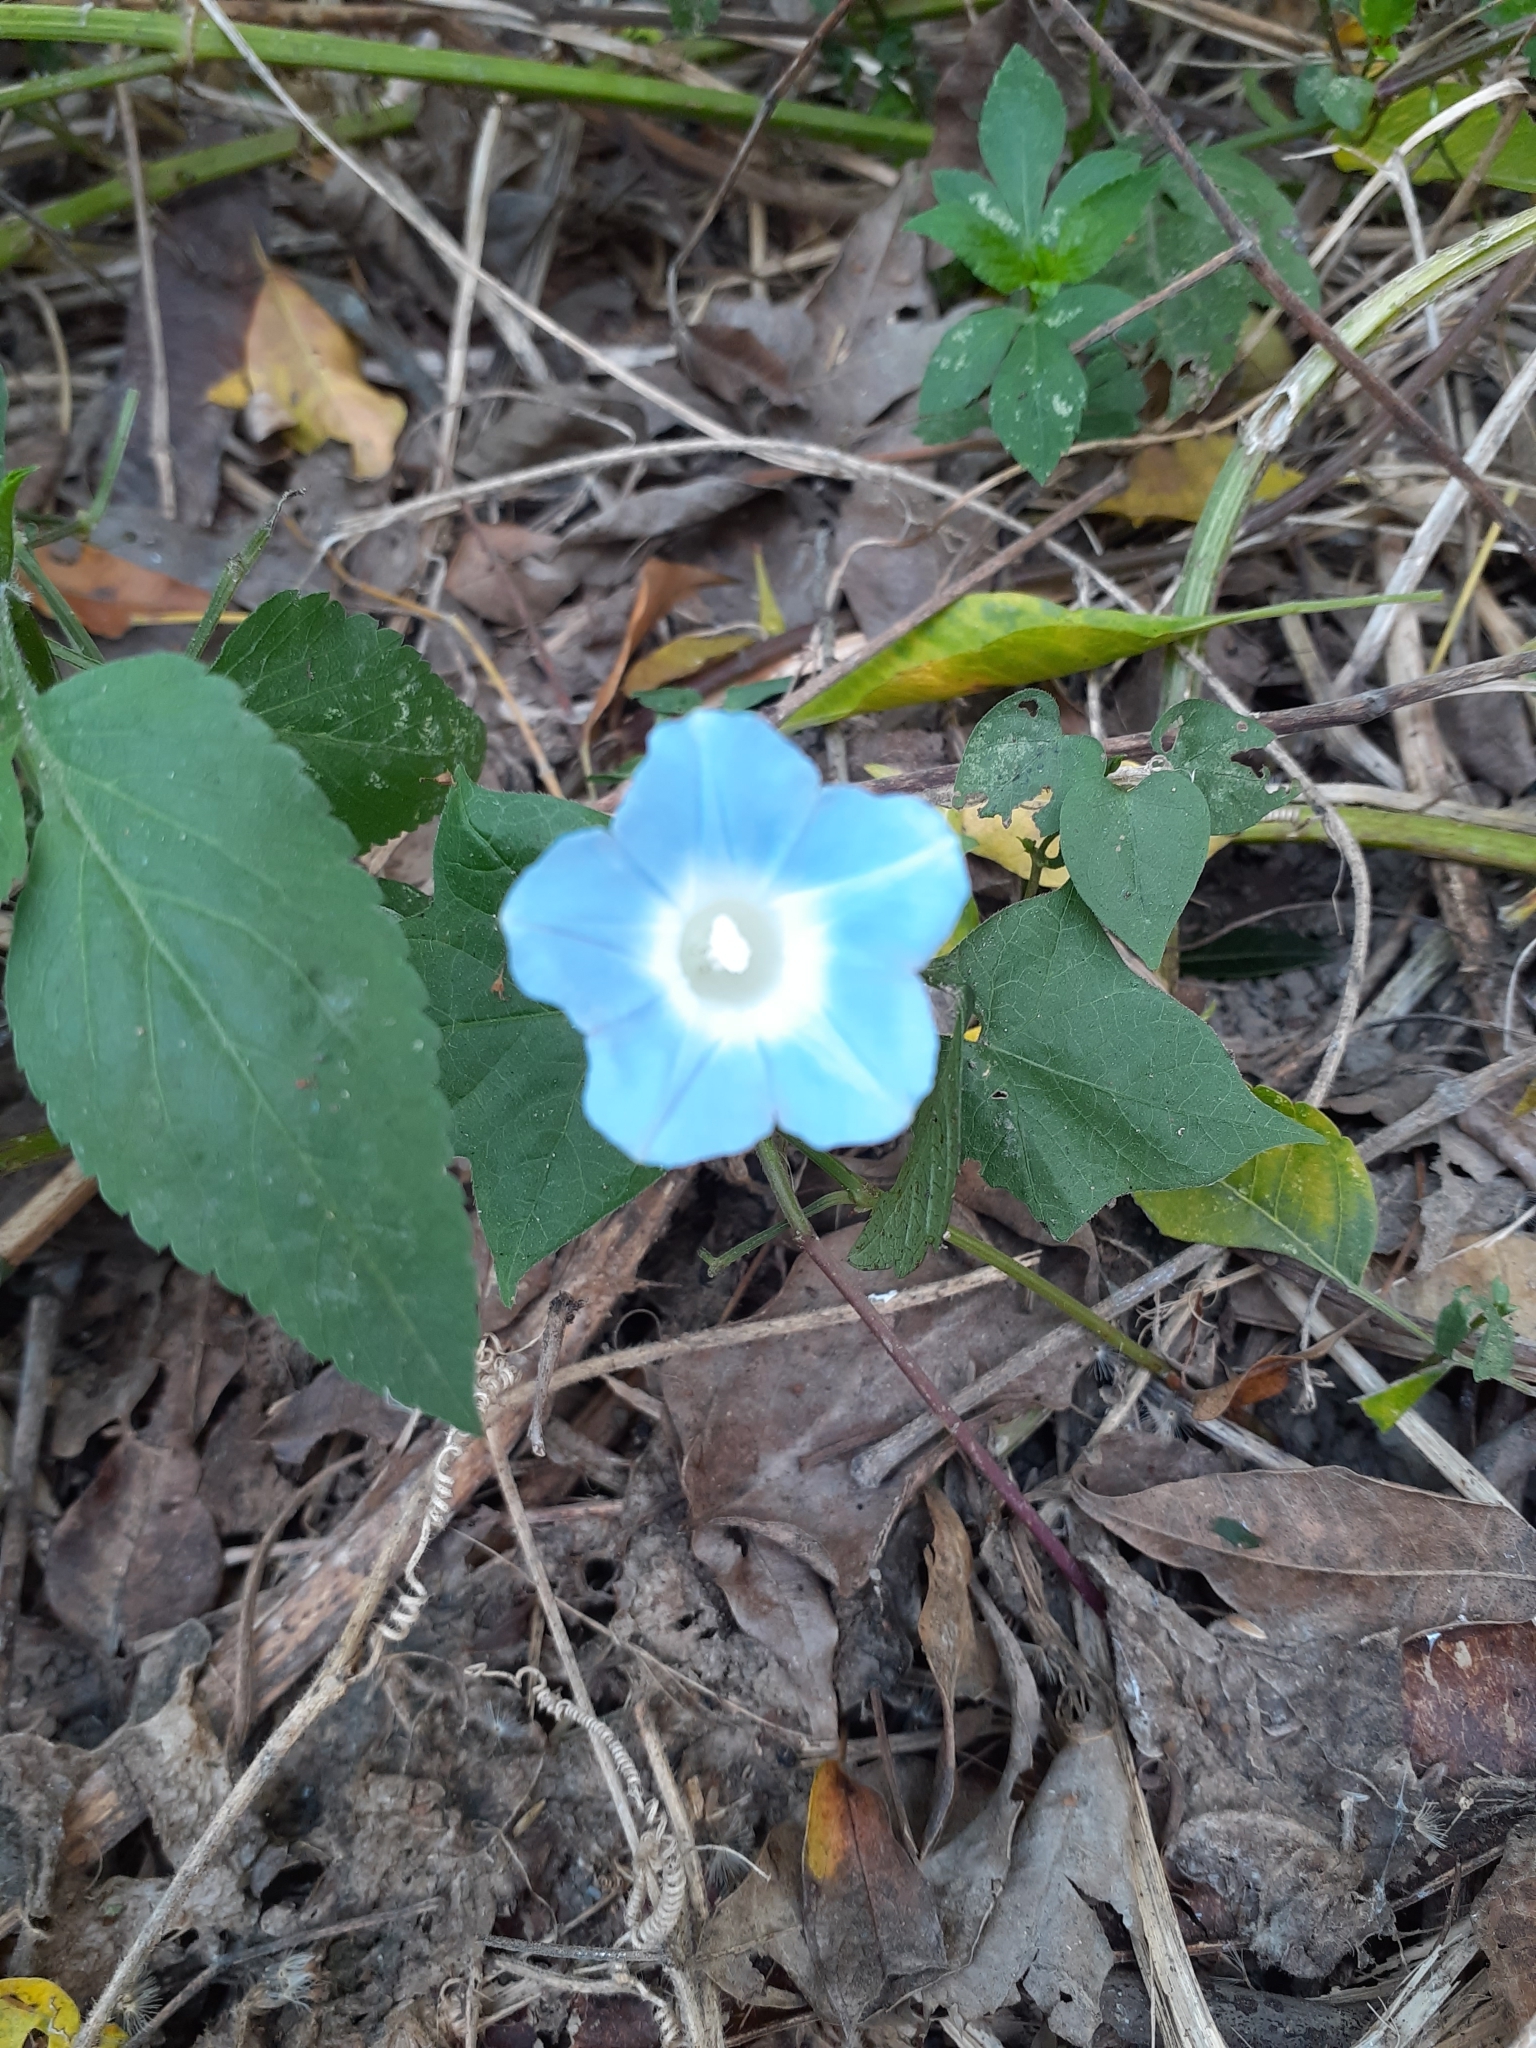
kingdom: Plantae
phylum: Tracheophyta
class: Magnoliopsida
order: Solanales
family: Convolvulaceae
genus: Ipomoea
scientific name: Ipomoea nil
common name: Japanese morning-glory
